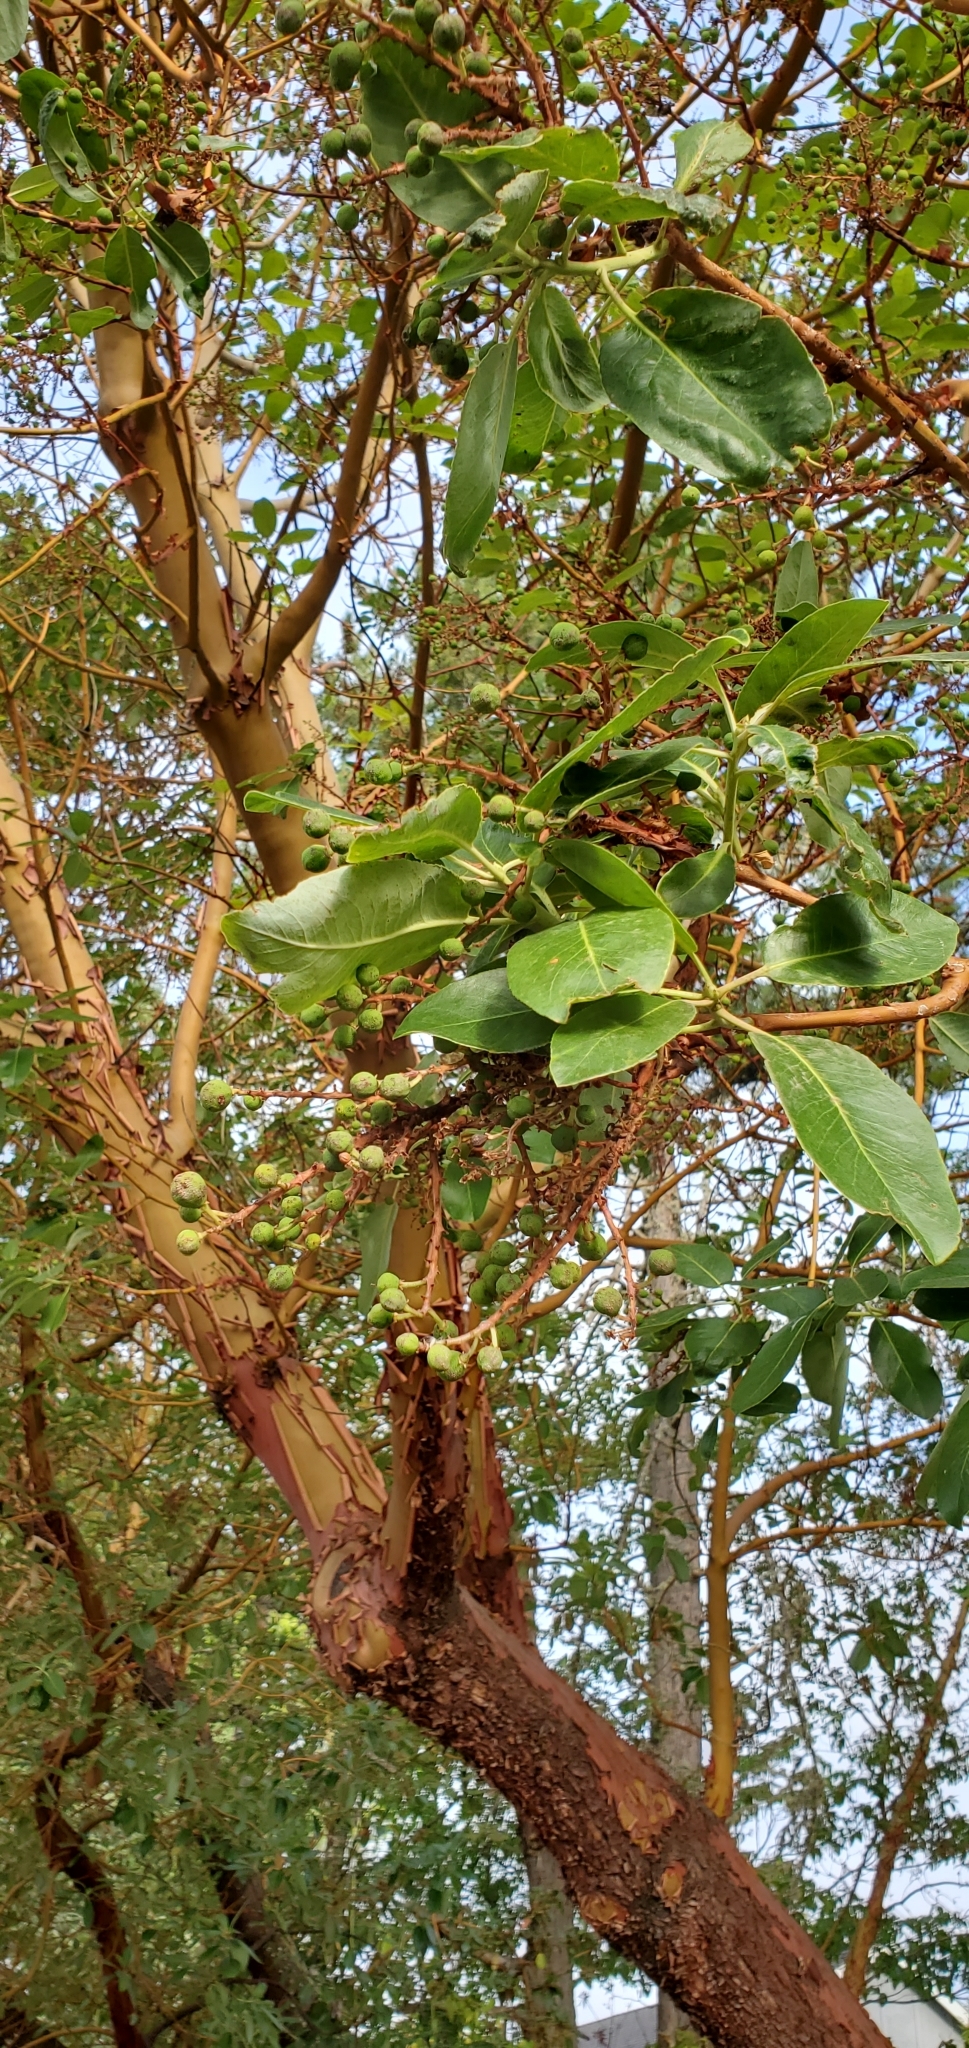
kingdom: Plantae
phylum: Tracheophyta
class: Magnoliopsida
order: Ericales
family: Ericaceae
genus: Arbutus
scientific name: Arbutus menziesii
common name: Pacific madrone
